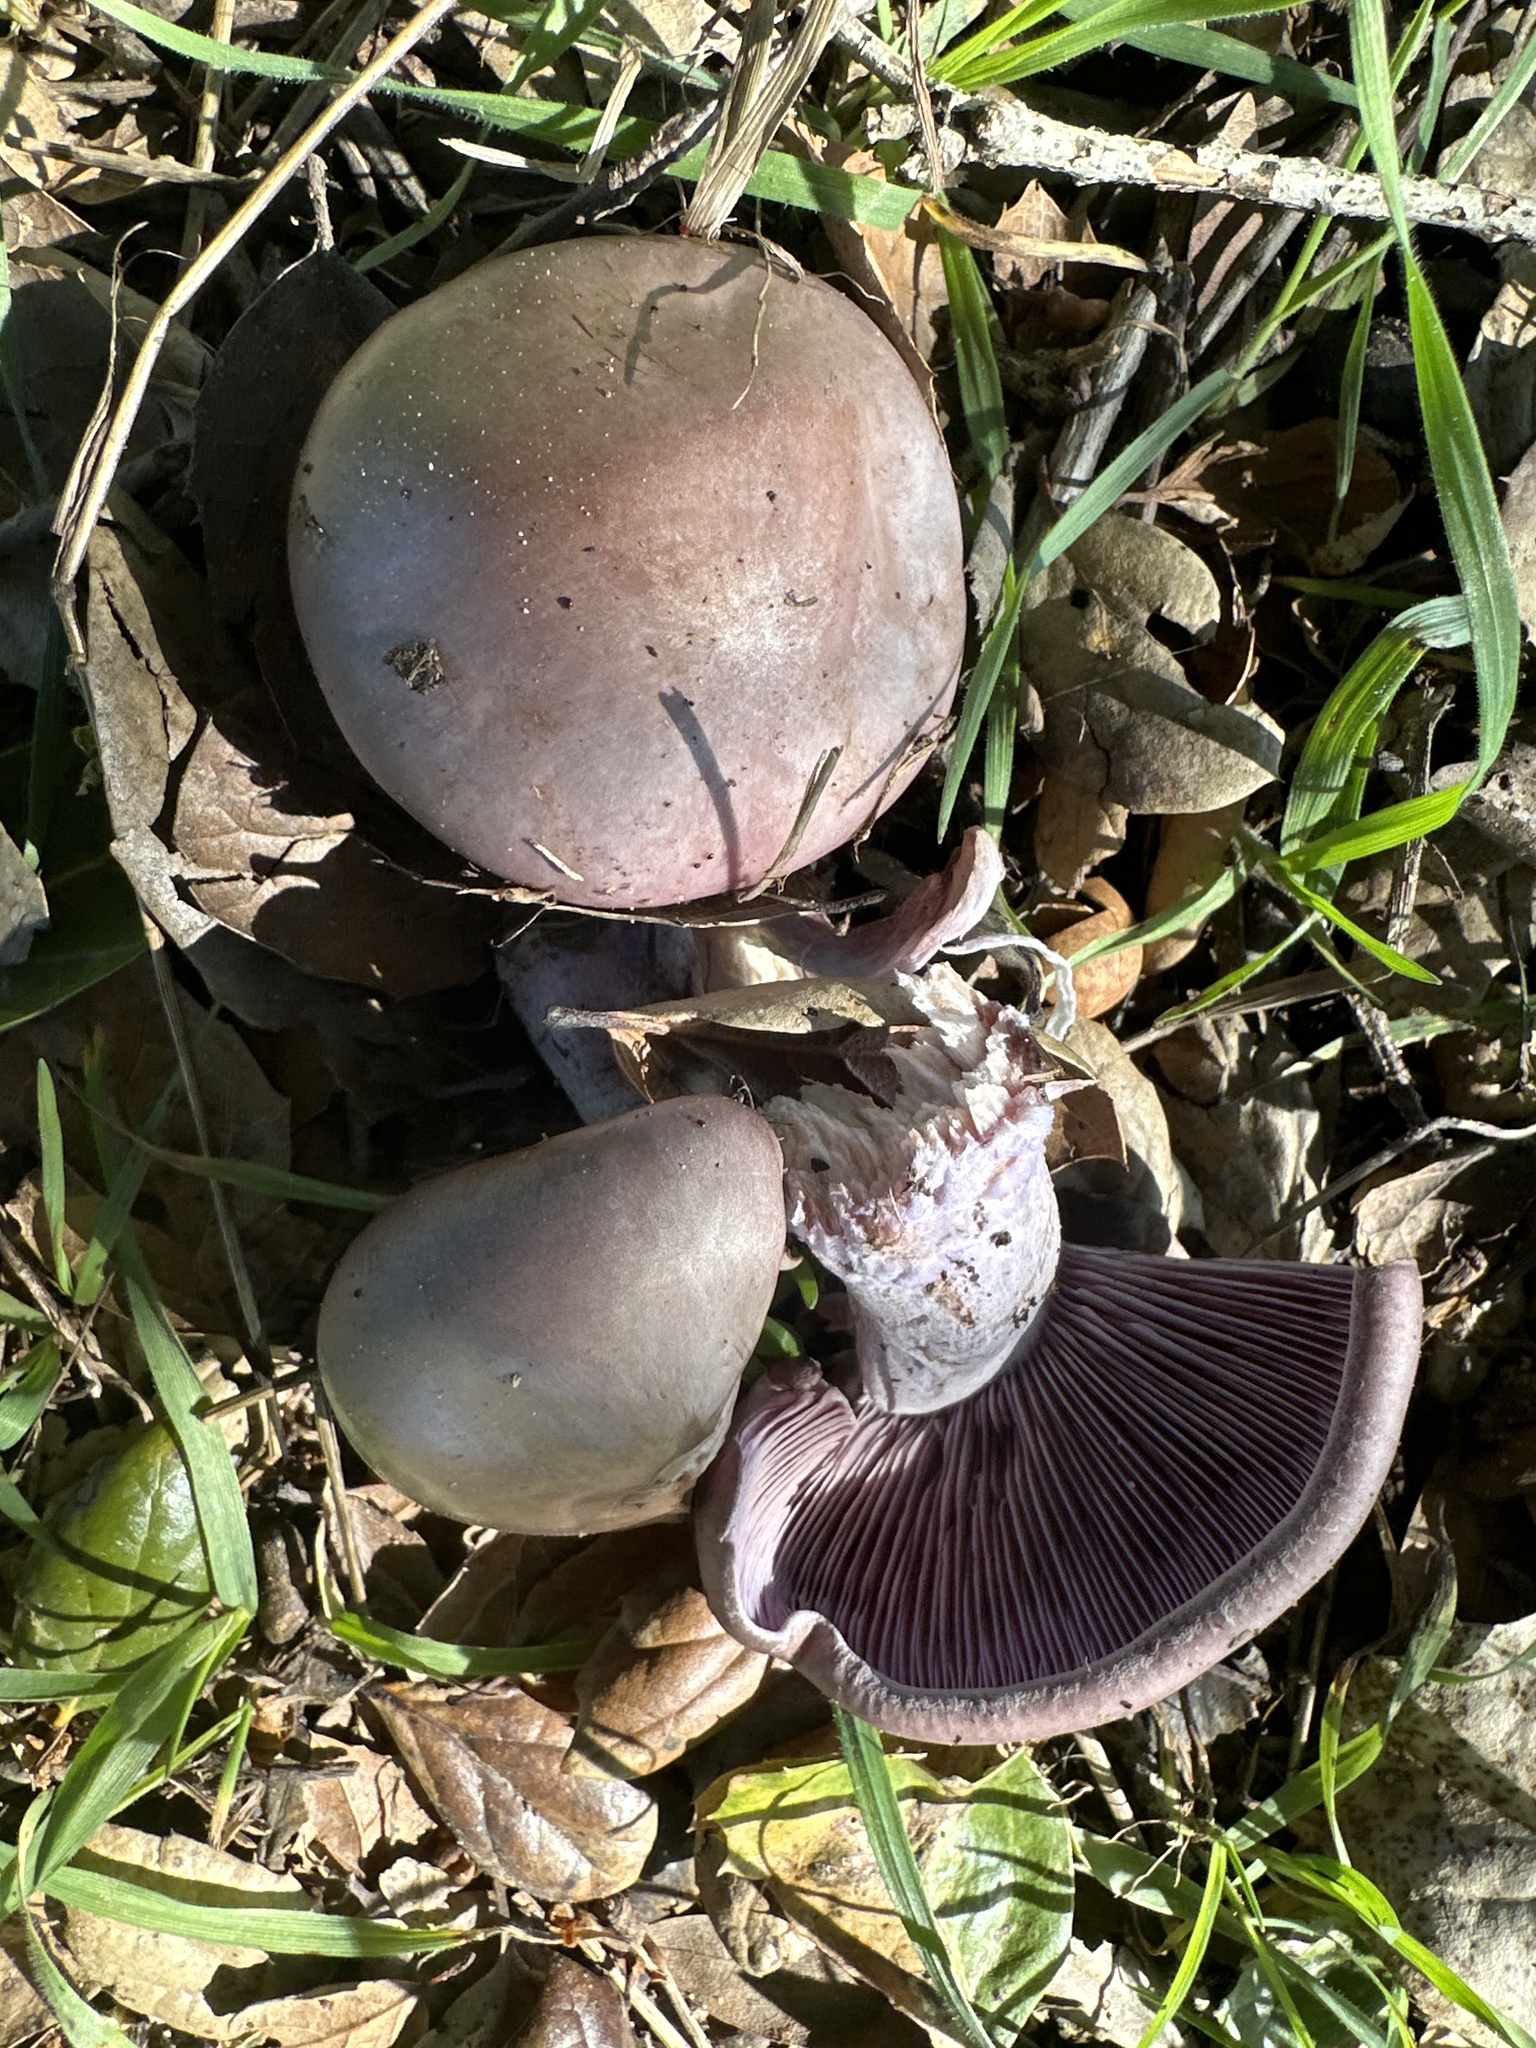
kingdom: Fungi
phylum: Basidiomycota
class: Agaricomycetes
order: Agaricales
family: Tricholomataceae
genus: Collybia
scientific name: Collybia
